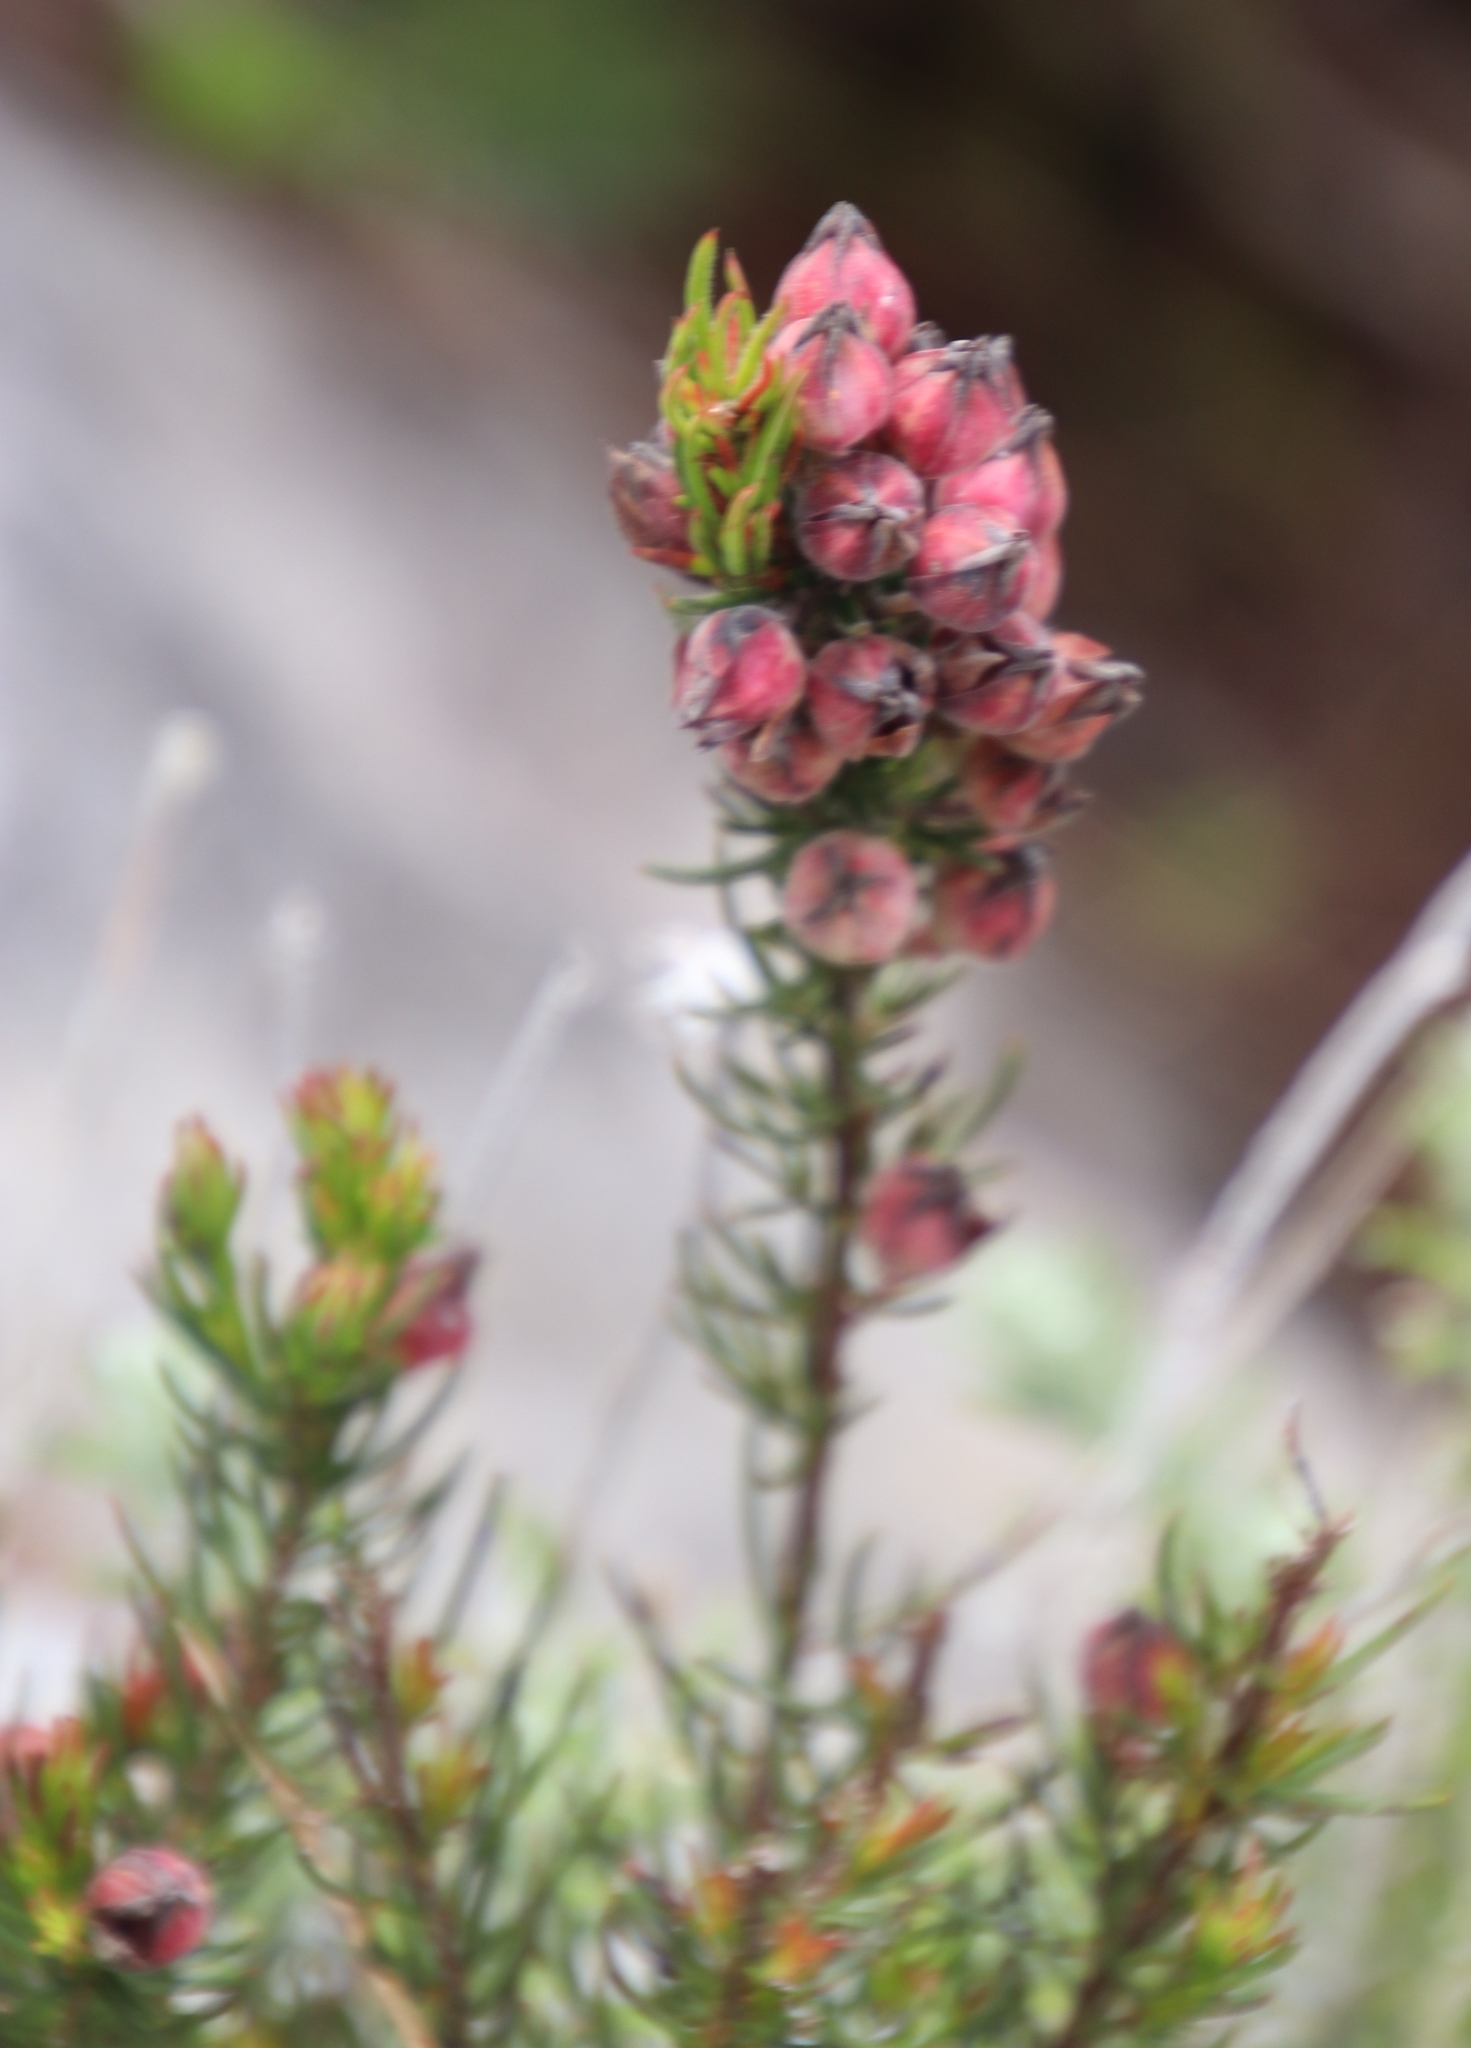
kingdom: Plantae
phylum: Tracheophyta
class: Magnoliopsida
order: Ericales
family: Ericaceae
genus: Erica
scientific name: Erica holosericea
